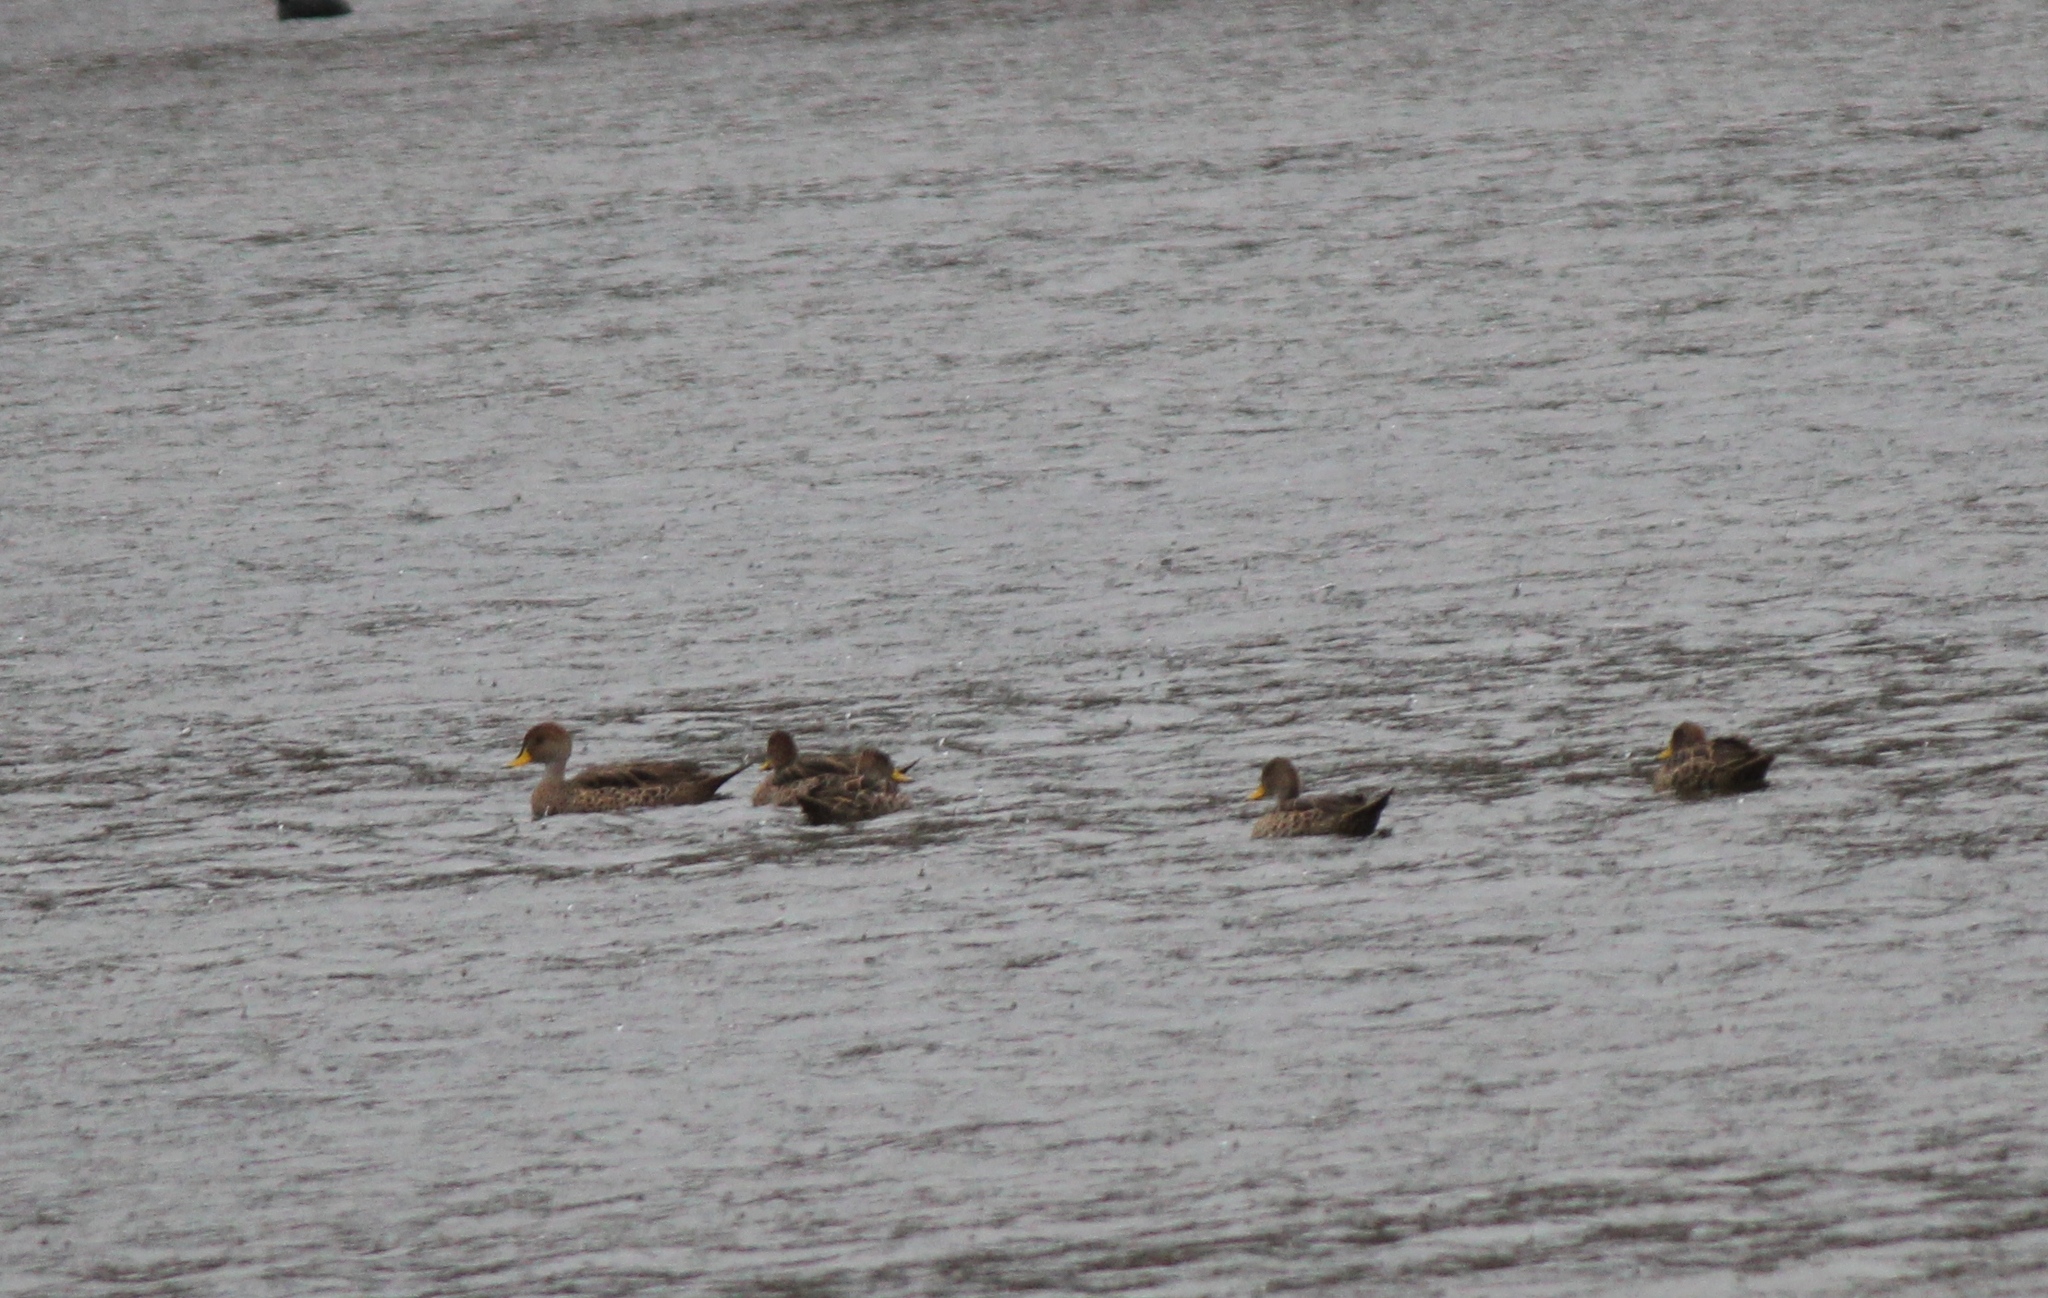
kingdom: Animalia
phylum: Chordata
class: Aves
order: Anseriformes
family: Anatidae
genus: Anas
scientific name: Anas georgica
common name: Yellow-billed pintail
